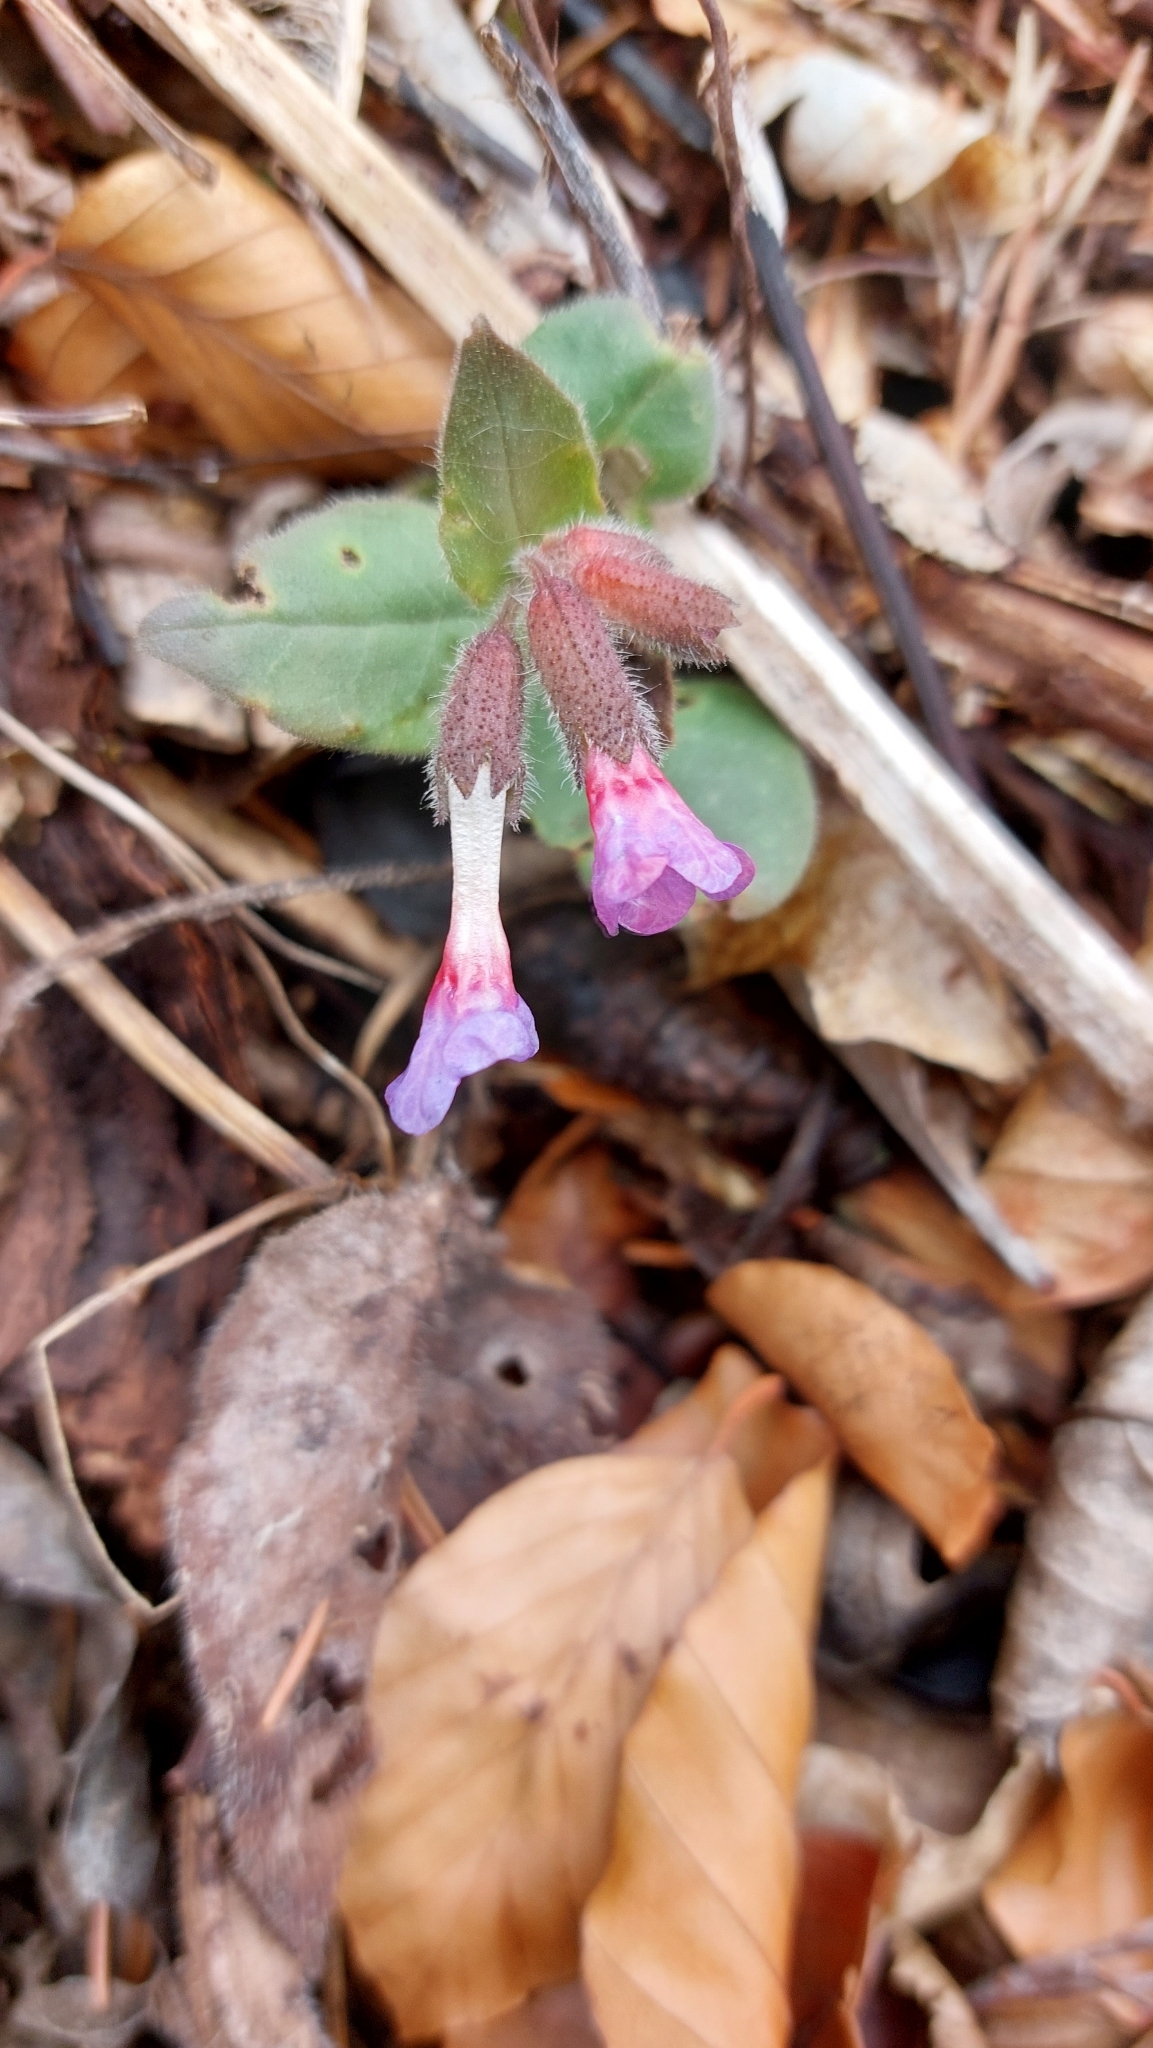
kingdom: Plantae
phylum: Tracheophyta
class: Magnoliopsida
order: Boraginales
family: Boraginaceae
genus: Pulmonaria
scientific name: Pulmonaria officinalis
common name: Lungwort
